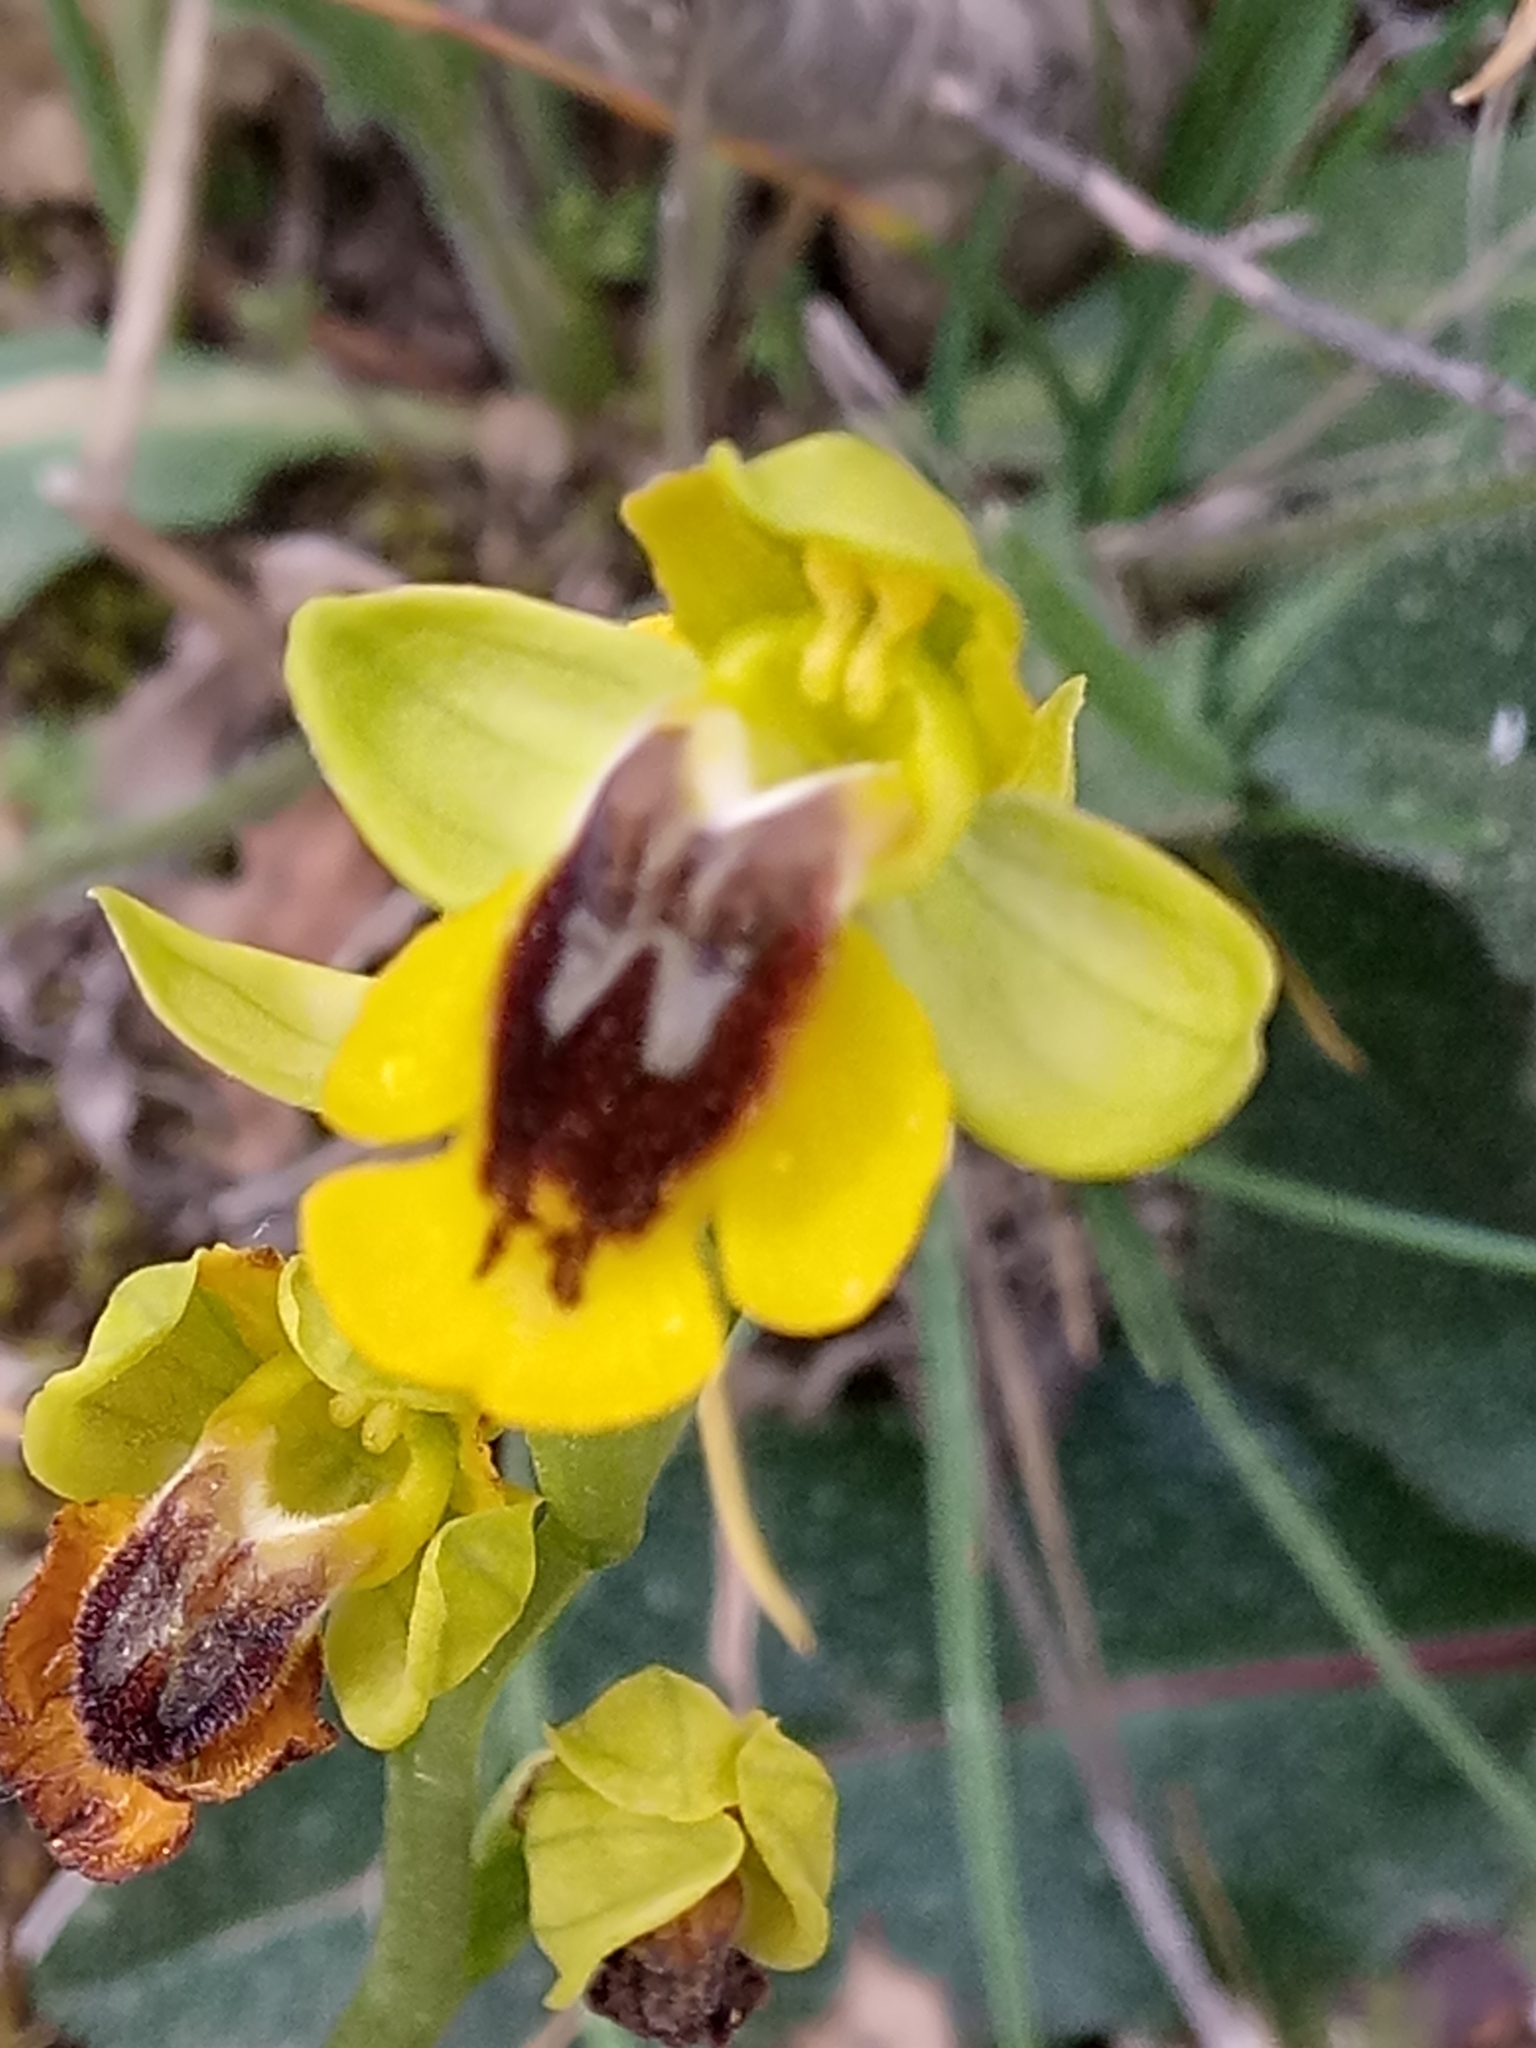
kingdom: Plantae
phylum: Tracheophyta
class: Liliopsida
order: Asparagales
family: Orchidaceae
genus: Ophrys
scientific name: Ophrys lutea
